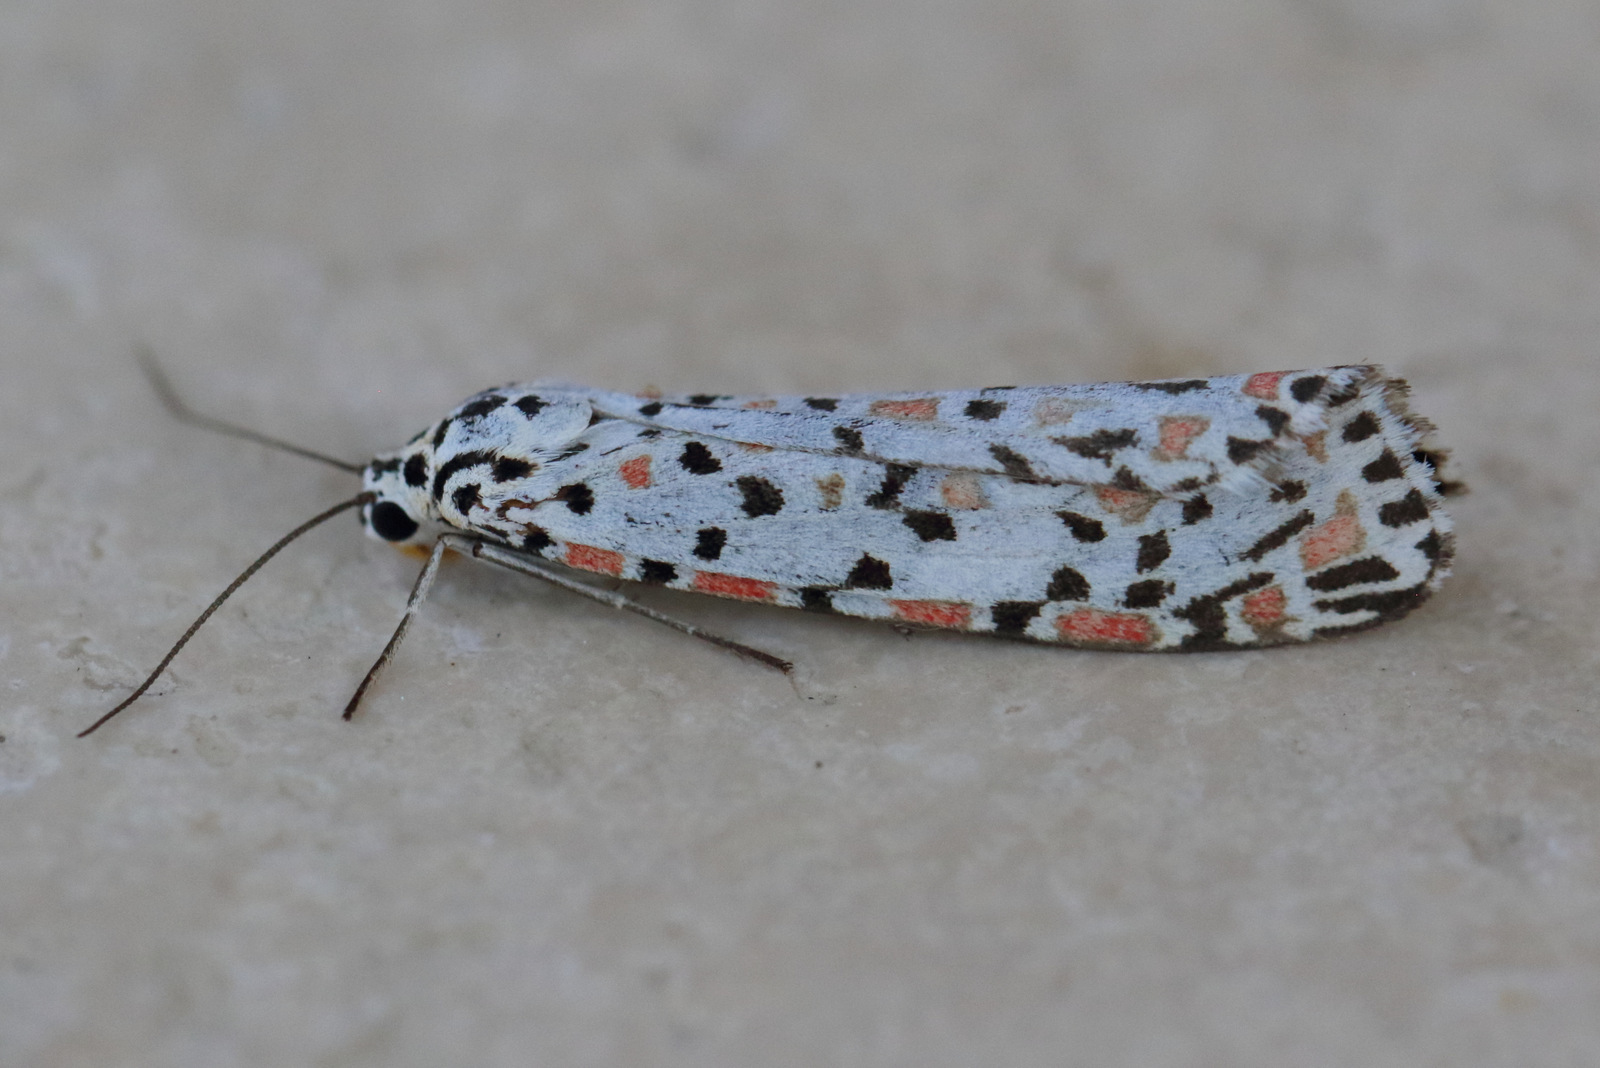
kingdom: Animalia
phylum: Arthropoda
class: Insecta
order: Lepidoptera
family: Erebidae
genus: Utetheisa
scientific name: Utetheisa pulchelloides
